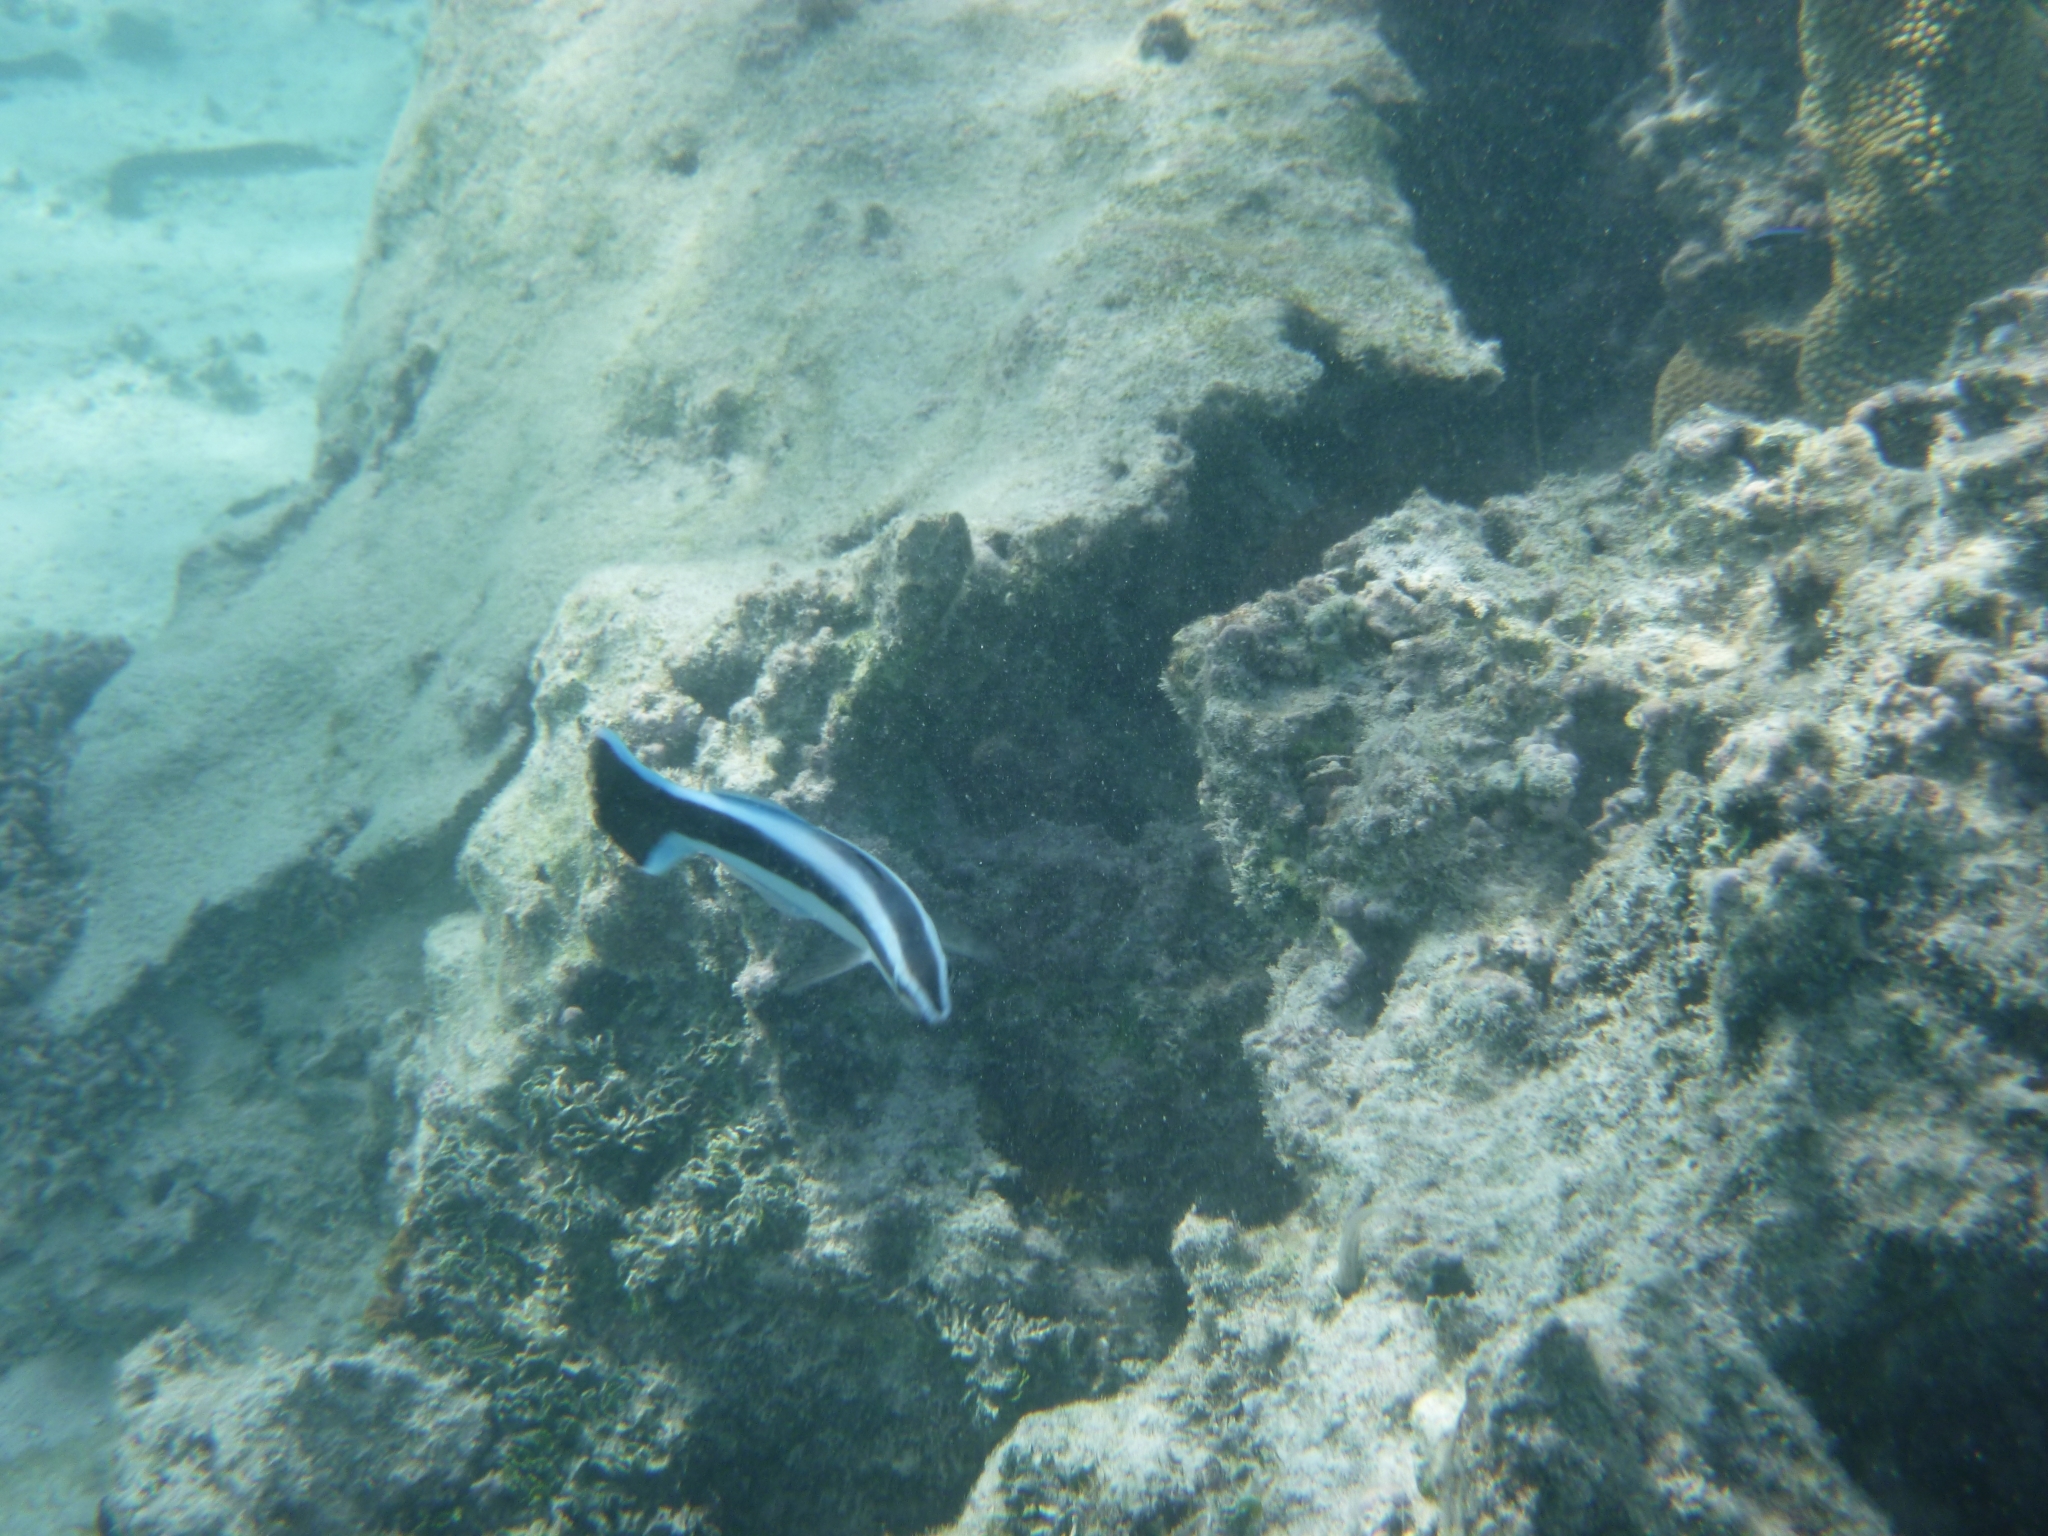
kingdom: Animalia
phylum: Chordata
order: Perciformes
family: Labridae
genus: Labroides
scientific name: Labroides dimidiatus
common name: Blue diesel wrasse
